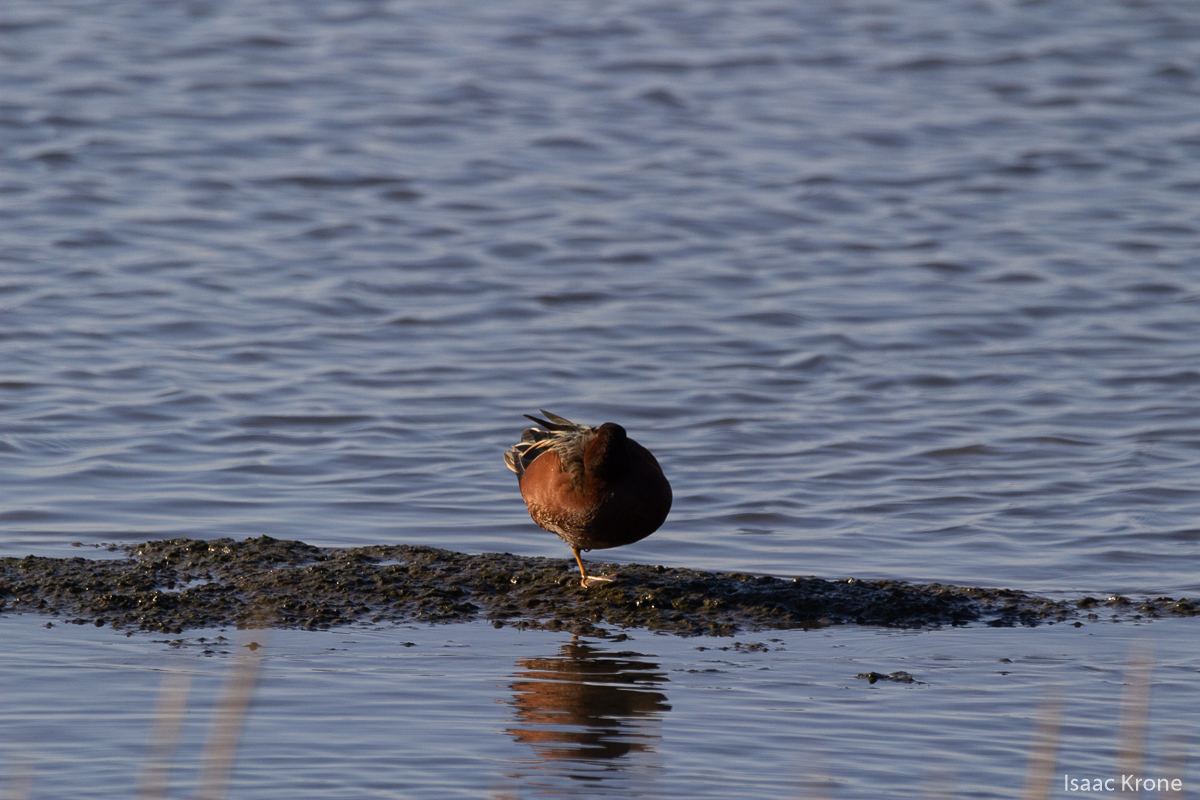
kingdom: Animalia
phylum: Chordata
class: Aves
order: Anseriformes
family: Anatidae
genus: Spatula
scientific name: Spatula cyanoptera
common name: Cinnamon teal
